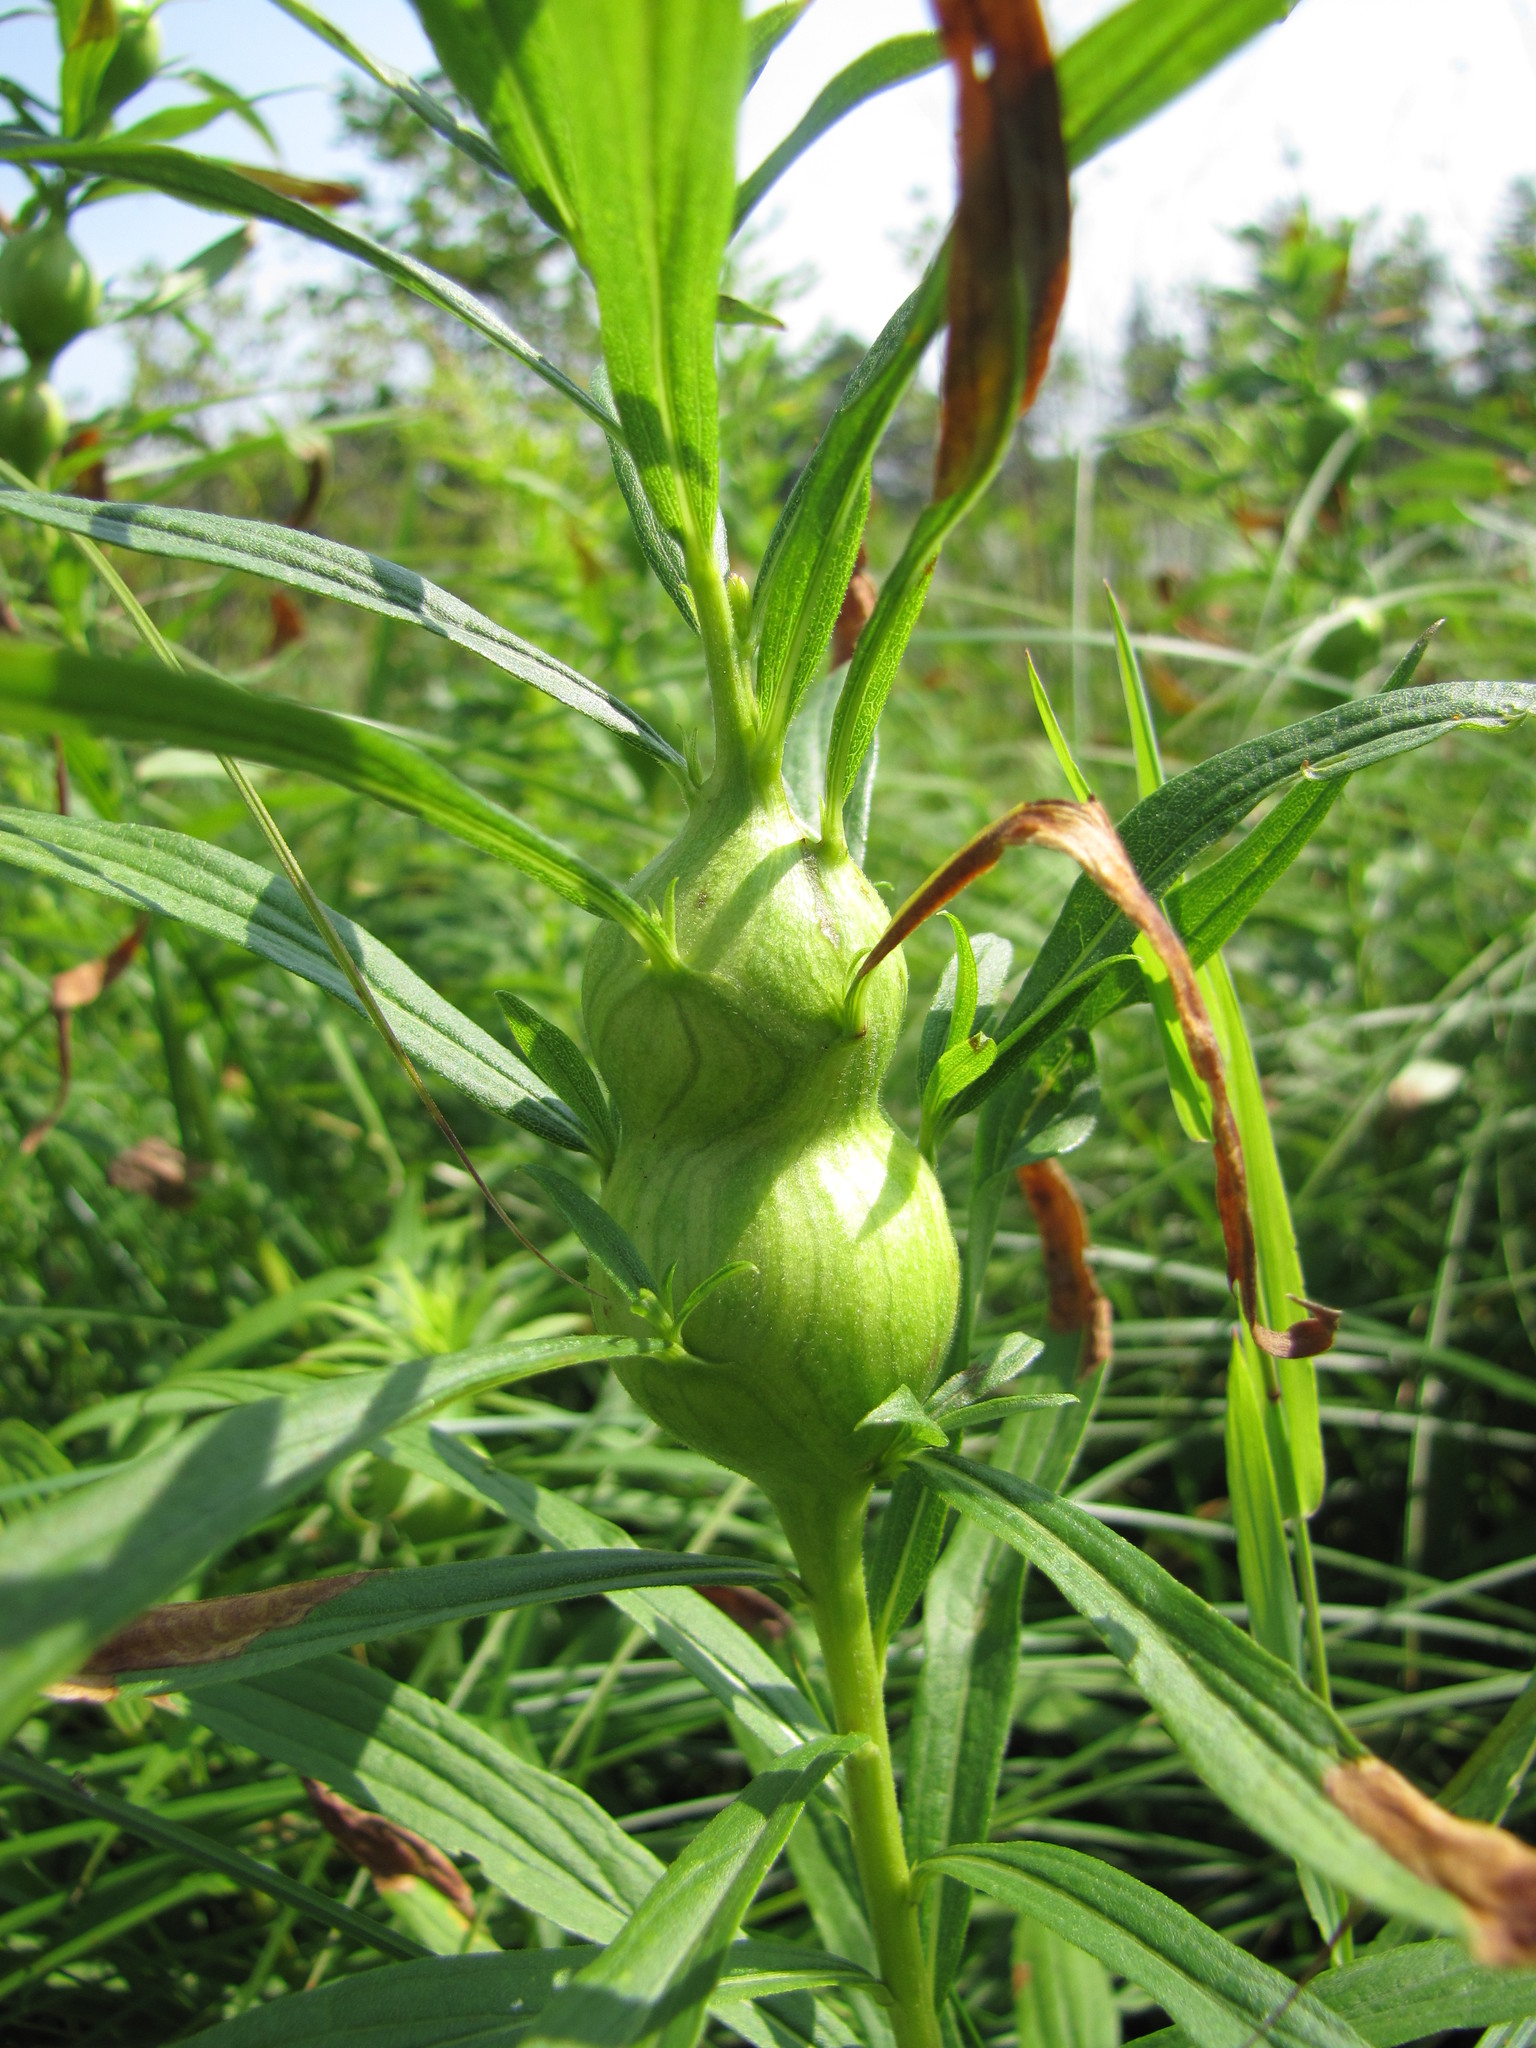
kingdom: Animalia
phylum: Arthropoda
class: Insecta
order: Diptera
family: Tephritidae
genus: Eurosta
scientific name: Eurosta solidaginis
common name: Goldenrod gall fly
